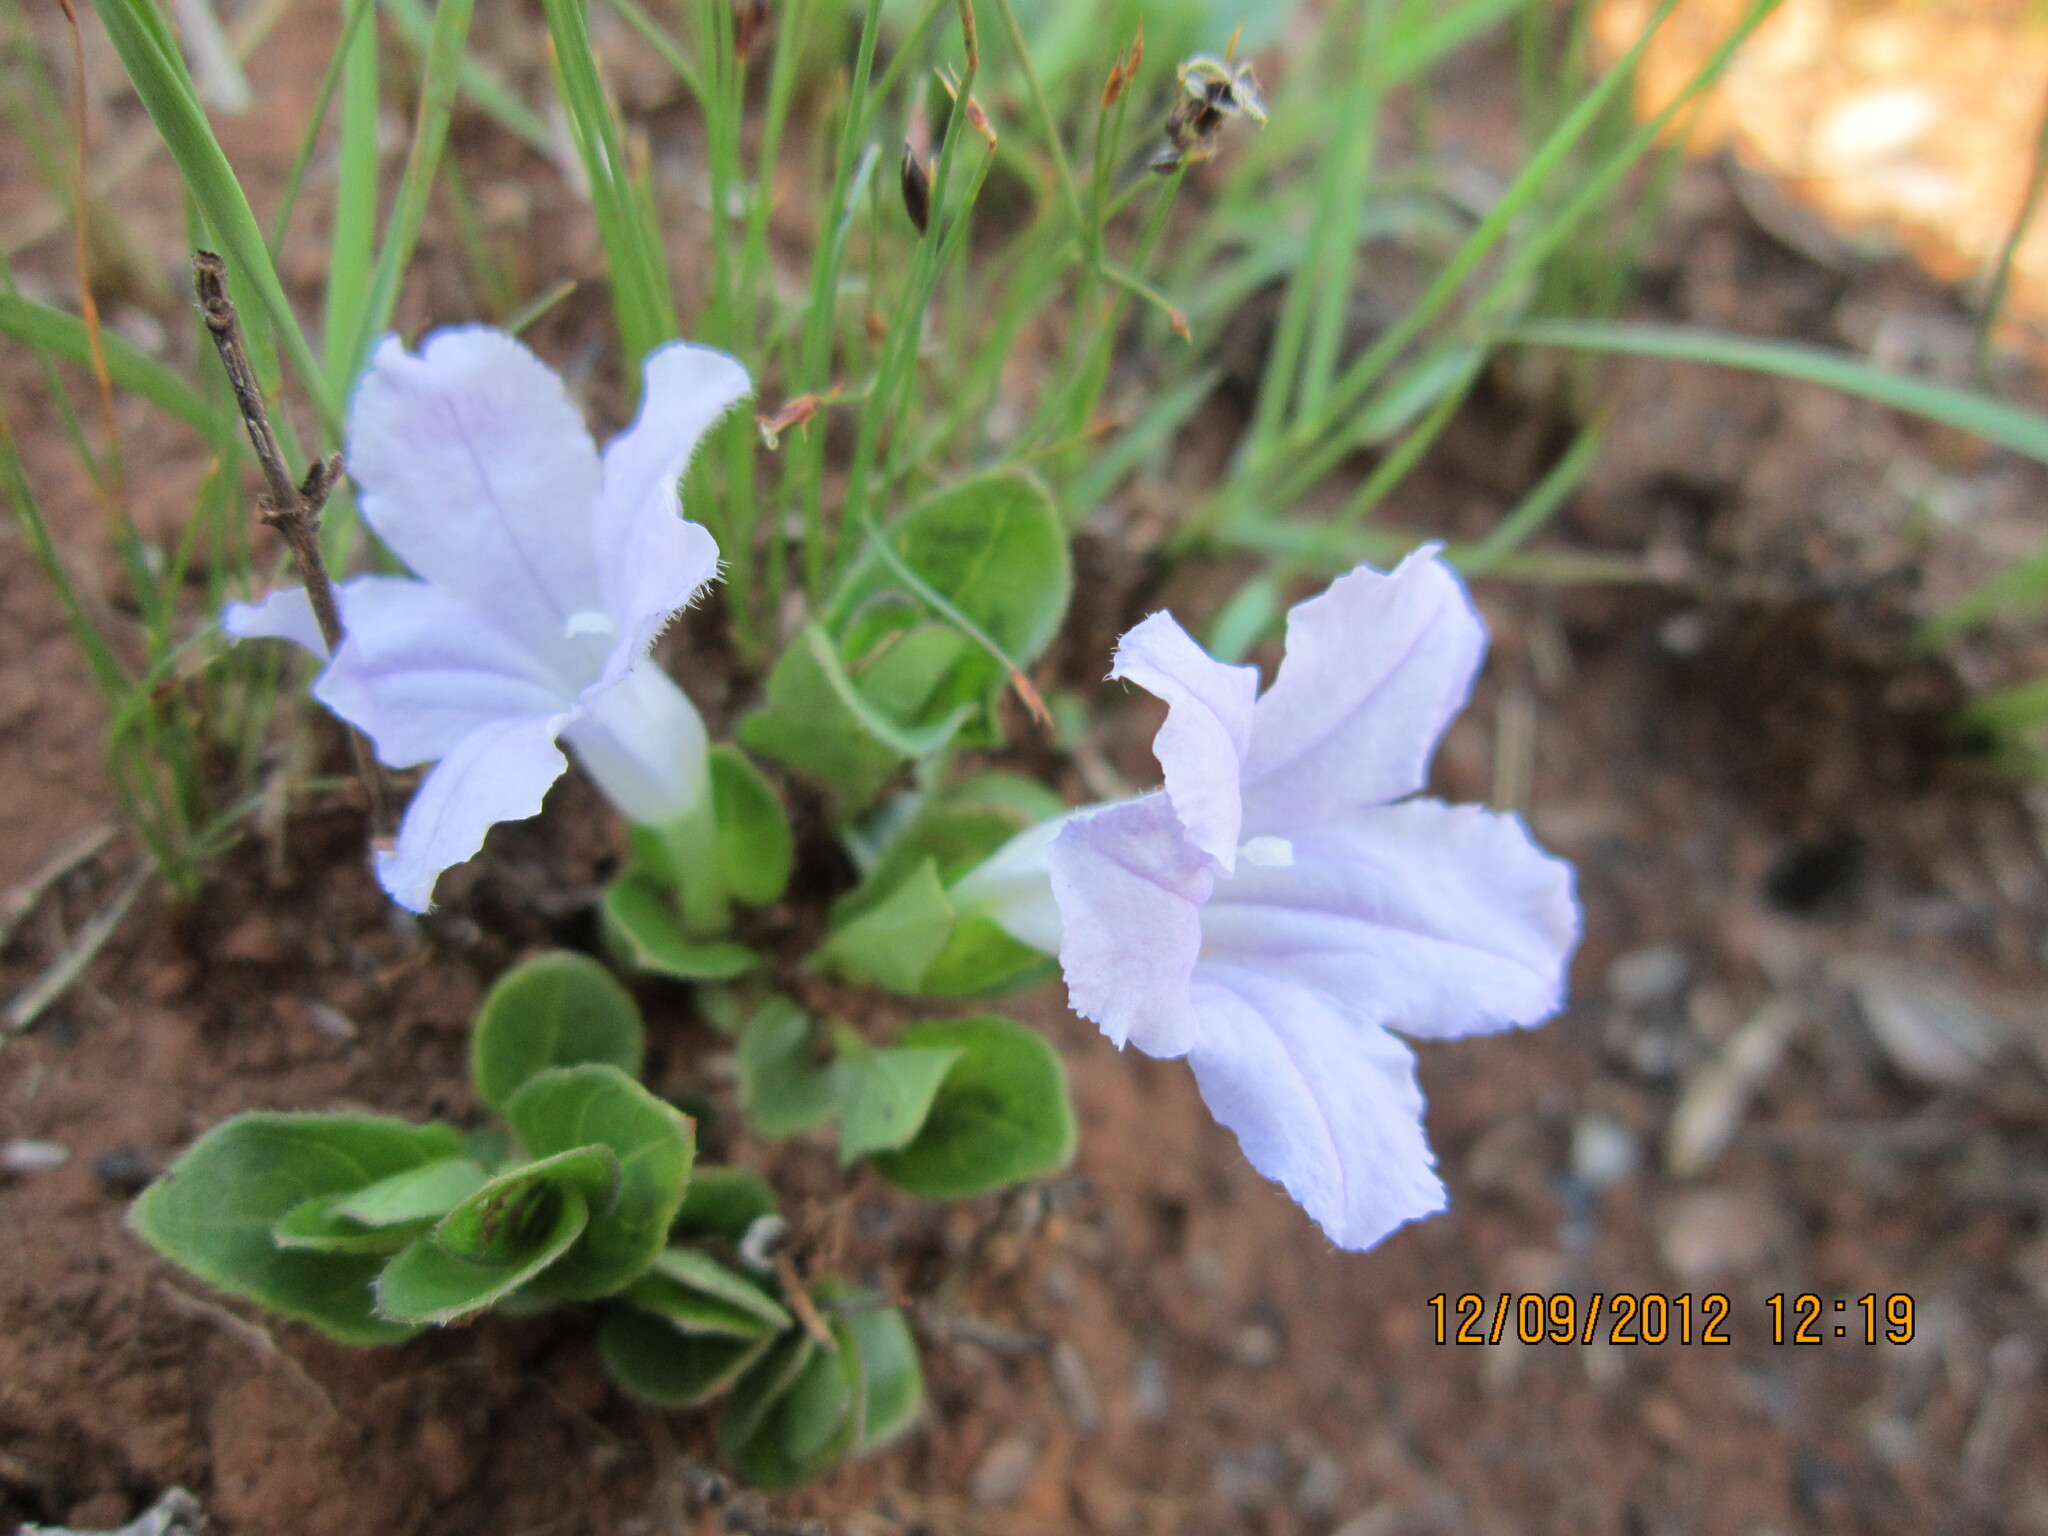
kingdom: Plantae
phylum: Tracheophyta
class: Magnoliopsida
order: Lamiales
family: Acanthaceae
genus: Ruellia
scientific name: Ruellia cordata
